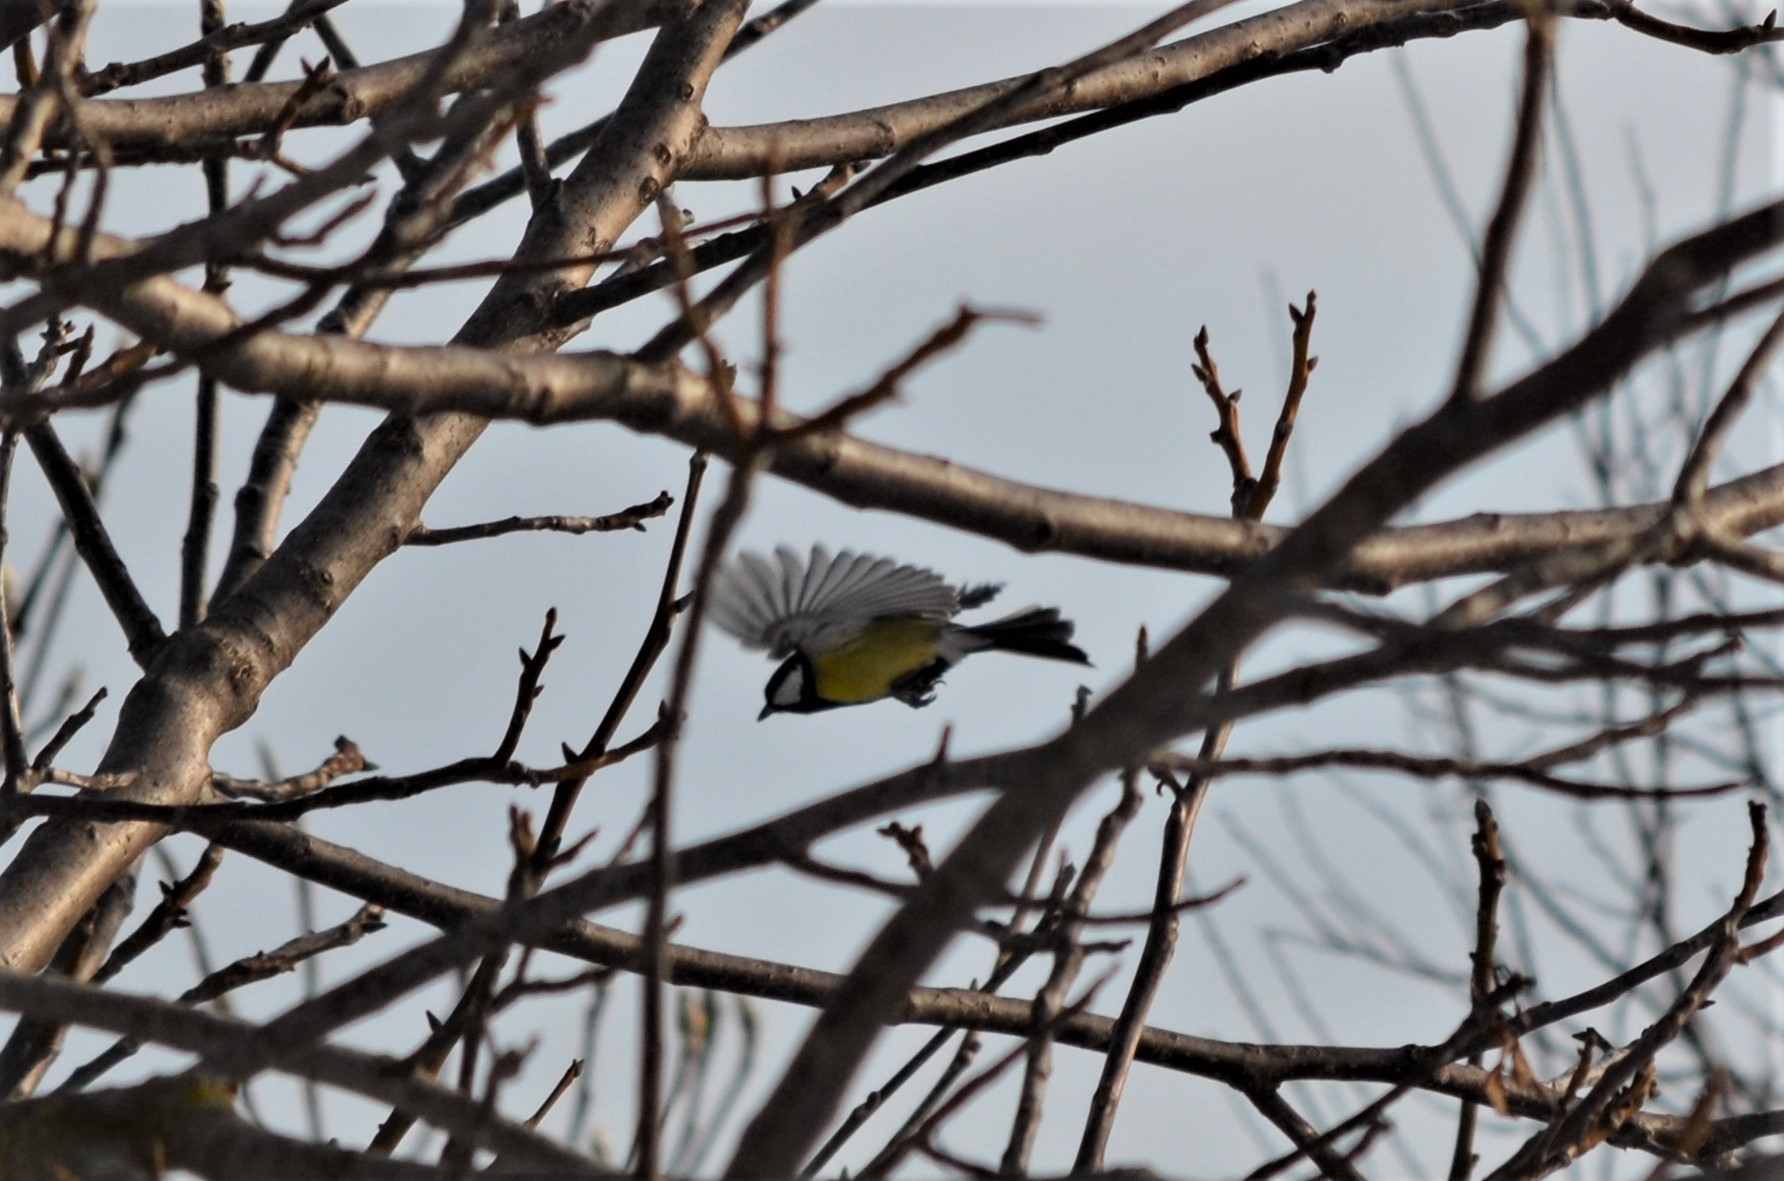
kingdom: Animalia
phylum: Chordata
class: Aves
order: Passeriformes
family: Paridae
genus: Parus
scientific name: Parus major
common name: Great tit
